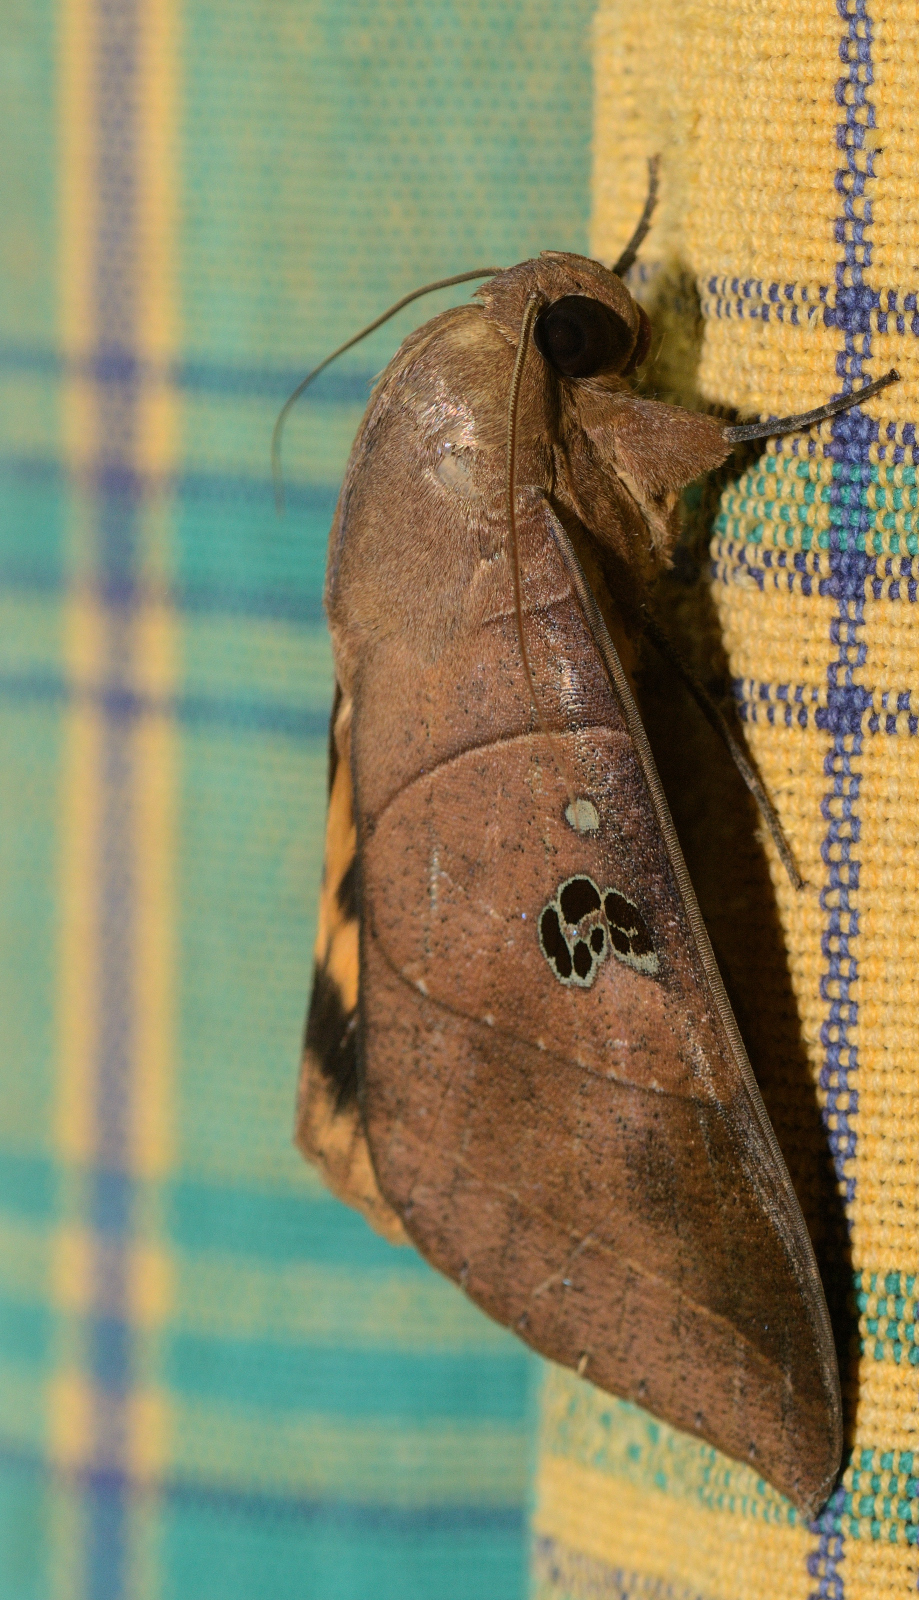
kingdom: Animalia
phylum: Arthropoda
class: Insecta
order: Lepidoptera
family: Erebidae
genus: Thyas
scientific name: Thyas coronata
